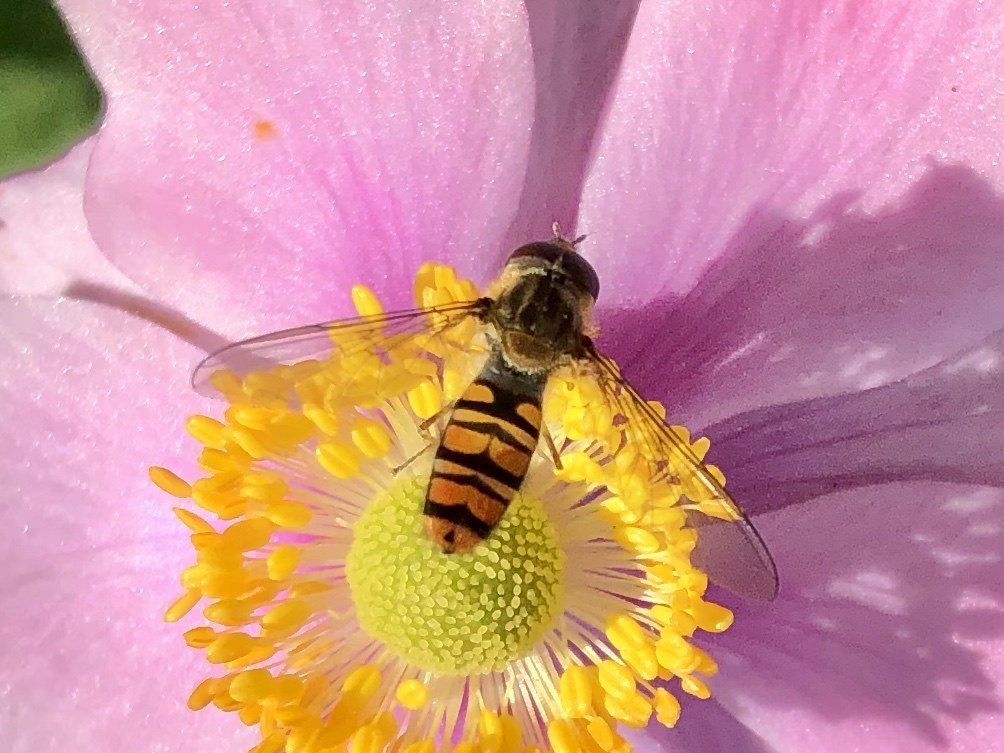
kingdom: Animalia
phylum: Arthropoda
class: Insecta
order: Diptera
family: Syrphidae
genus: Episyrphus
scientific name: Episyrphus balteatus
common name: Marmalade hoverfly
